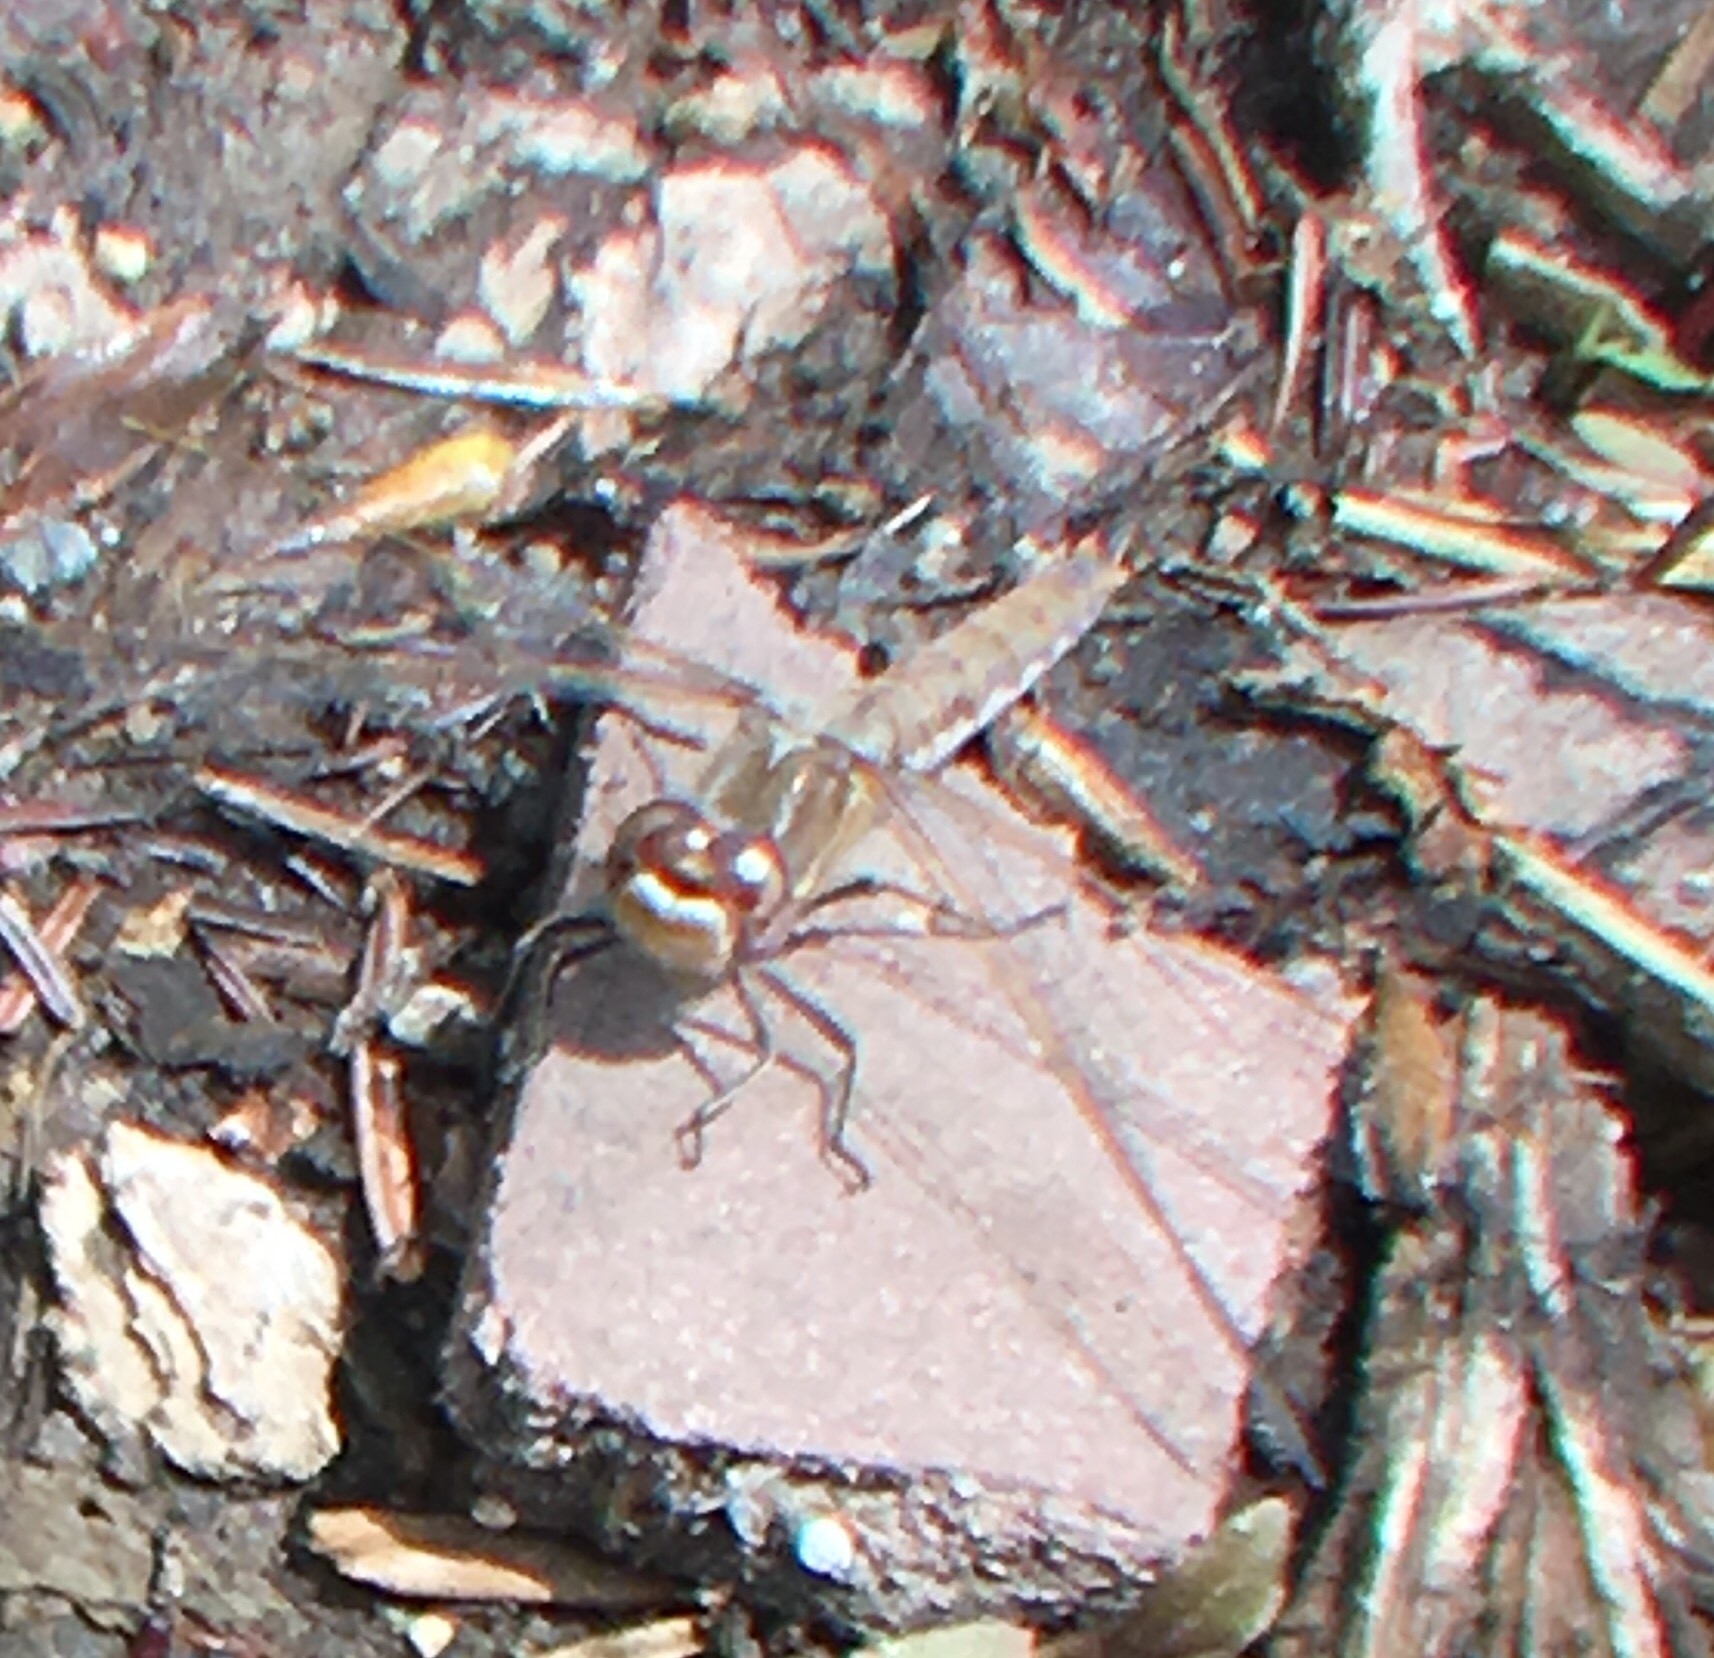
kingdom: Animalia
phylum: Arthropoda
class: Insecta
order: Odonata
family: Libellulidae
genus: Sympetrum
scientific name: Sympetrum corruptum
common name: Variegated meadowhawk
